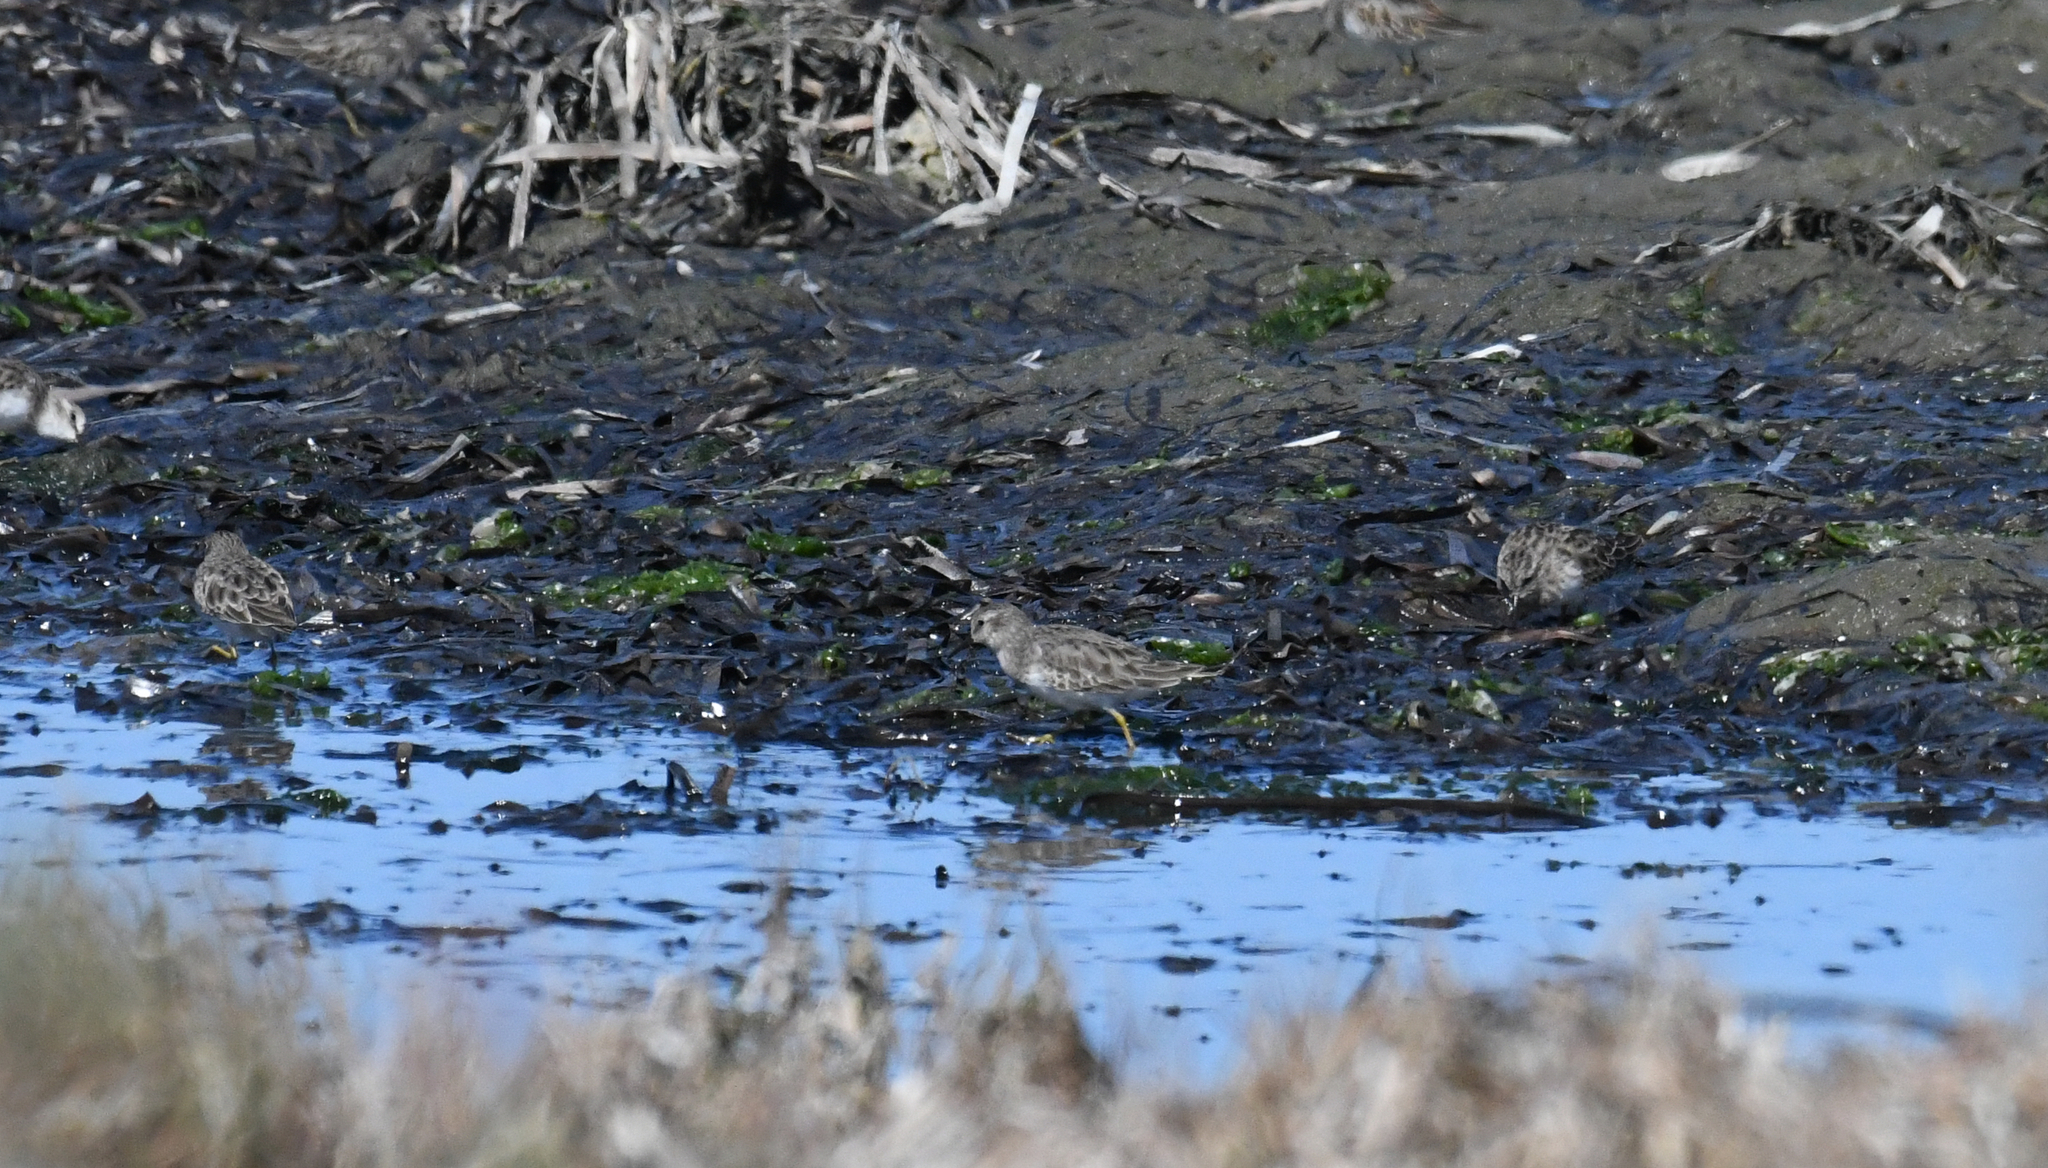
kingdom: Animalia
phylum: Chordata
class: Aves
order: Charadriiformes
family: Scolopacidae
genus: Calidris
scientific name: Calidris minutilla
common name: Least sandpiper
